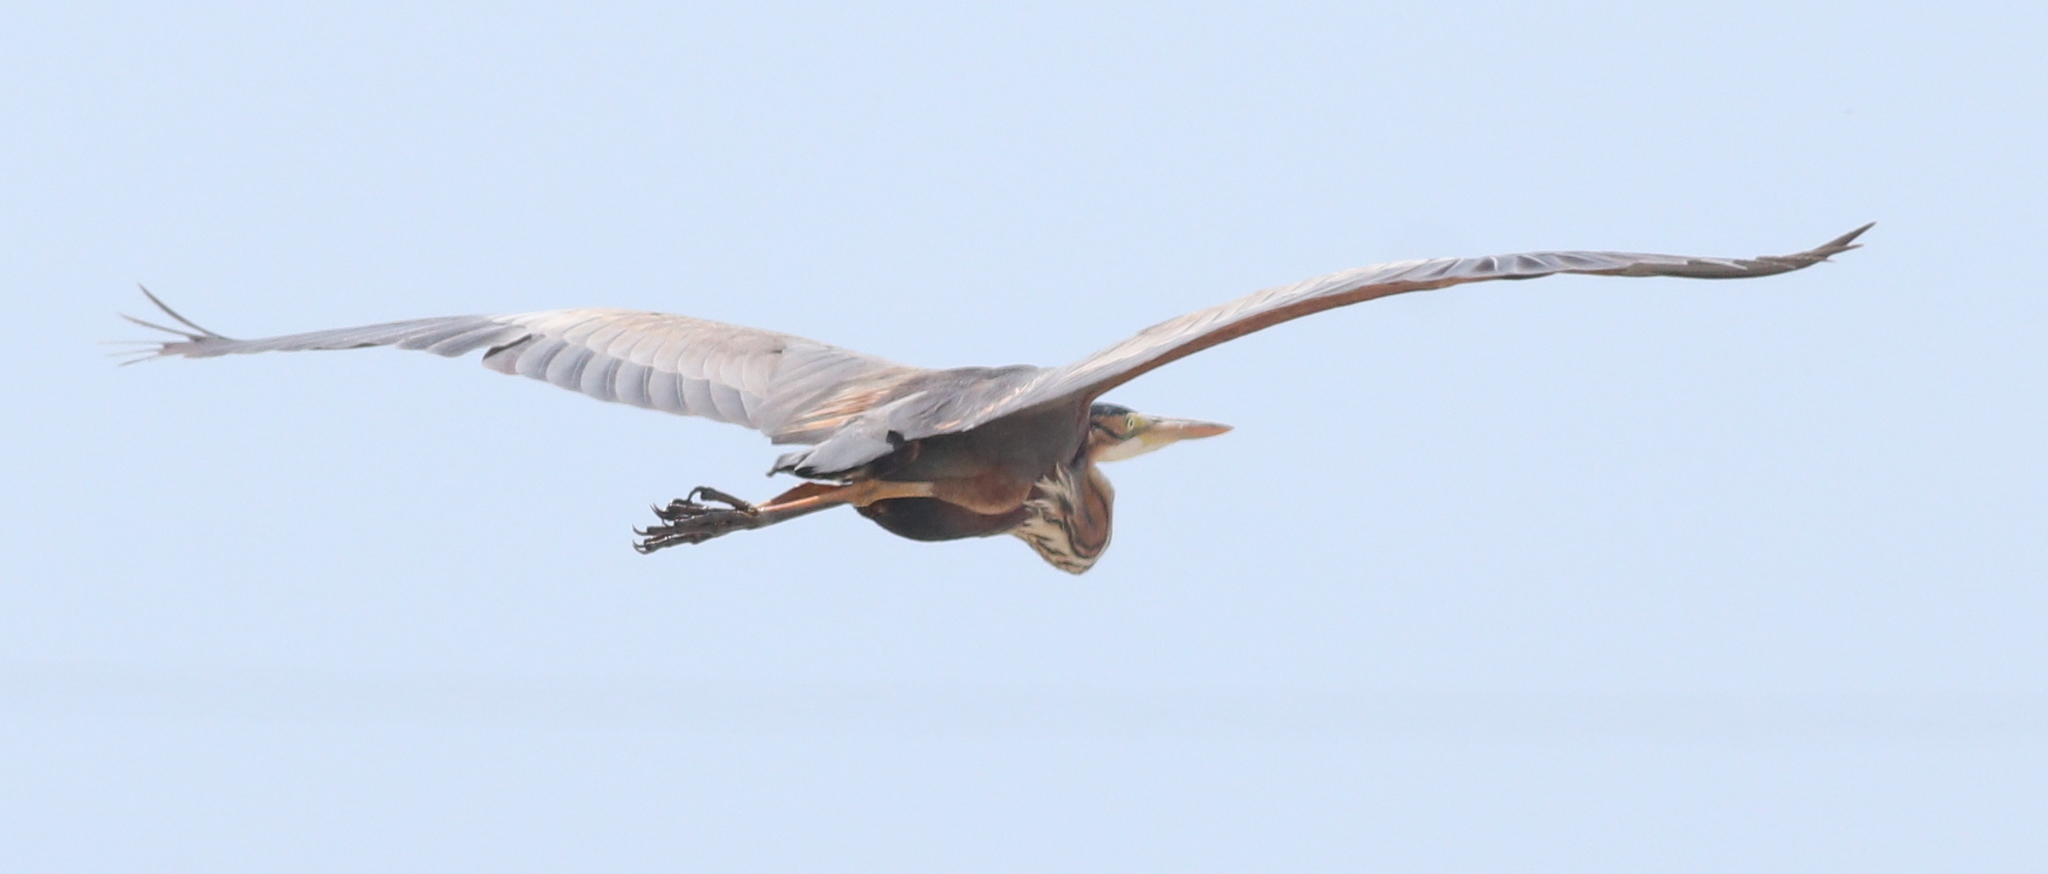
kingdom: Animalia
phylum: Chordata
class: Aves
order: Pelecaniformes
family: Ardeidae
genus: Ardea
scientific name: Ardea purpurea
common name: Purple heron
